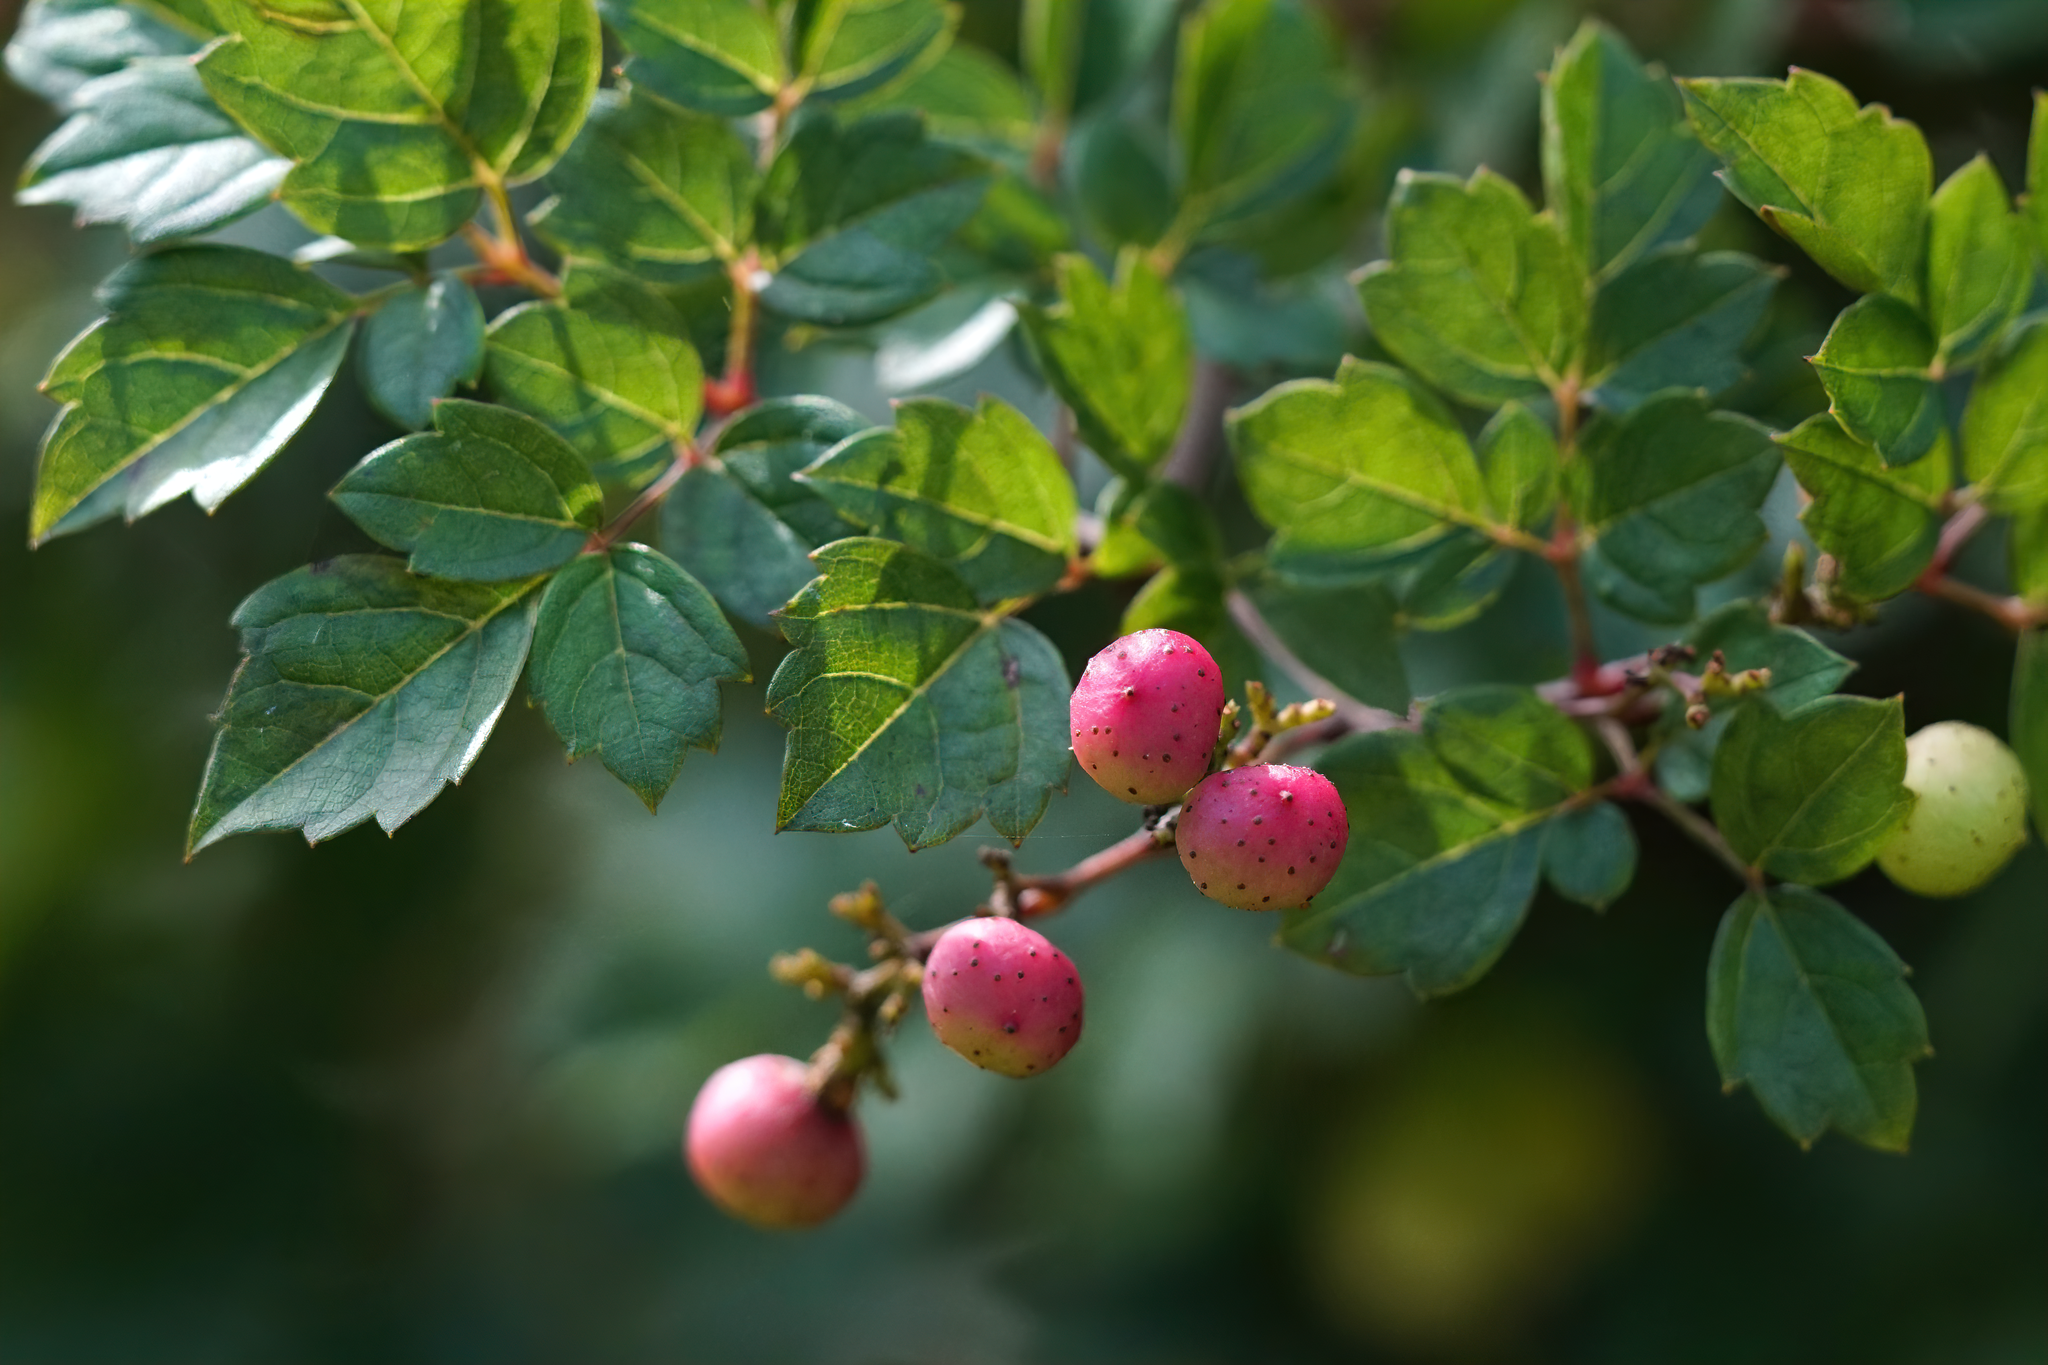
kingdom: Plantae
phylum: Tracheophyta
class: Magnoliopsida
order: Vitales
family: Vitaceae
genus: Nekemias
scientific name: Nekemias arborea
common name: Peppervine
